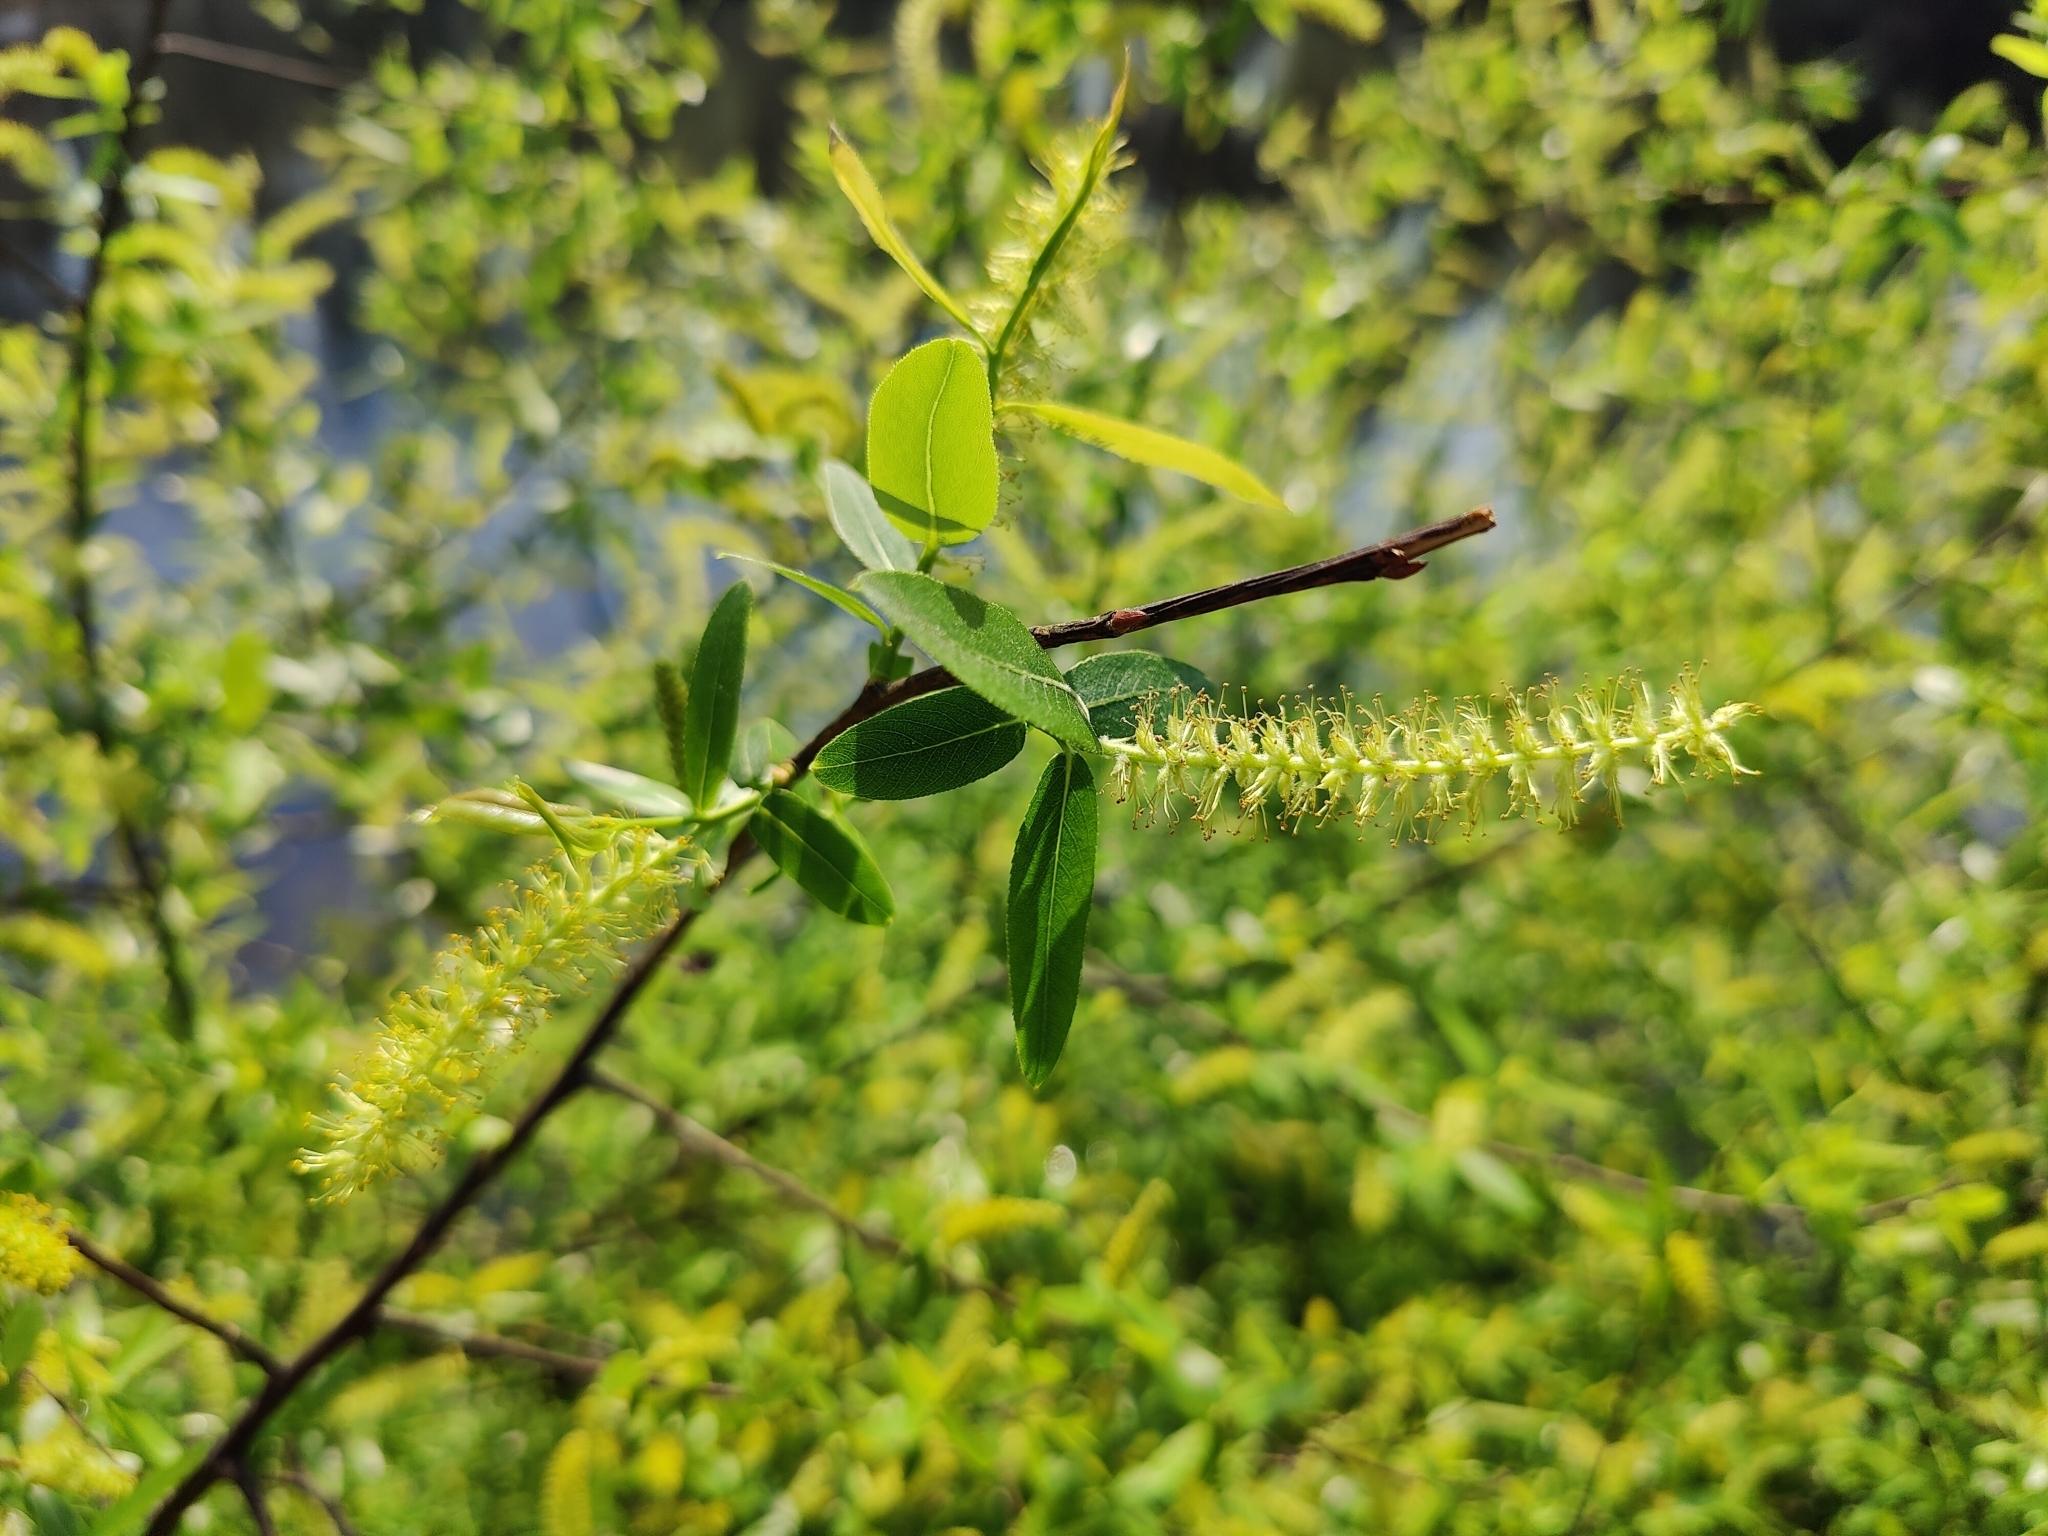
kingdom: Plantae
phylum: Tracheophyta
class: Magnoliopsida
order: Malpighiales
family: Salicaceae
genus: Salix
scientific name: Salix caroliniana
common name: Carolina willow
